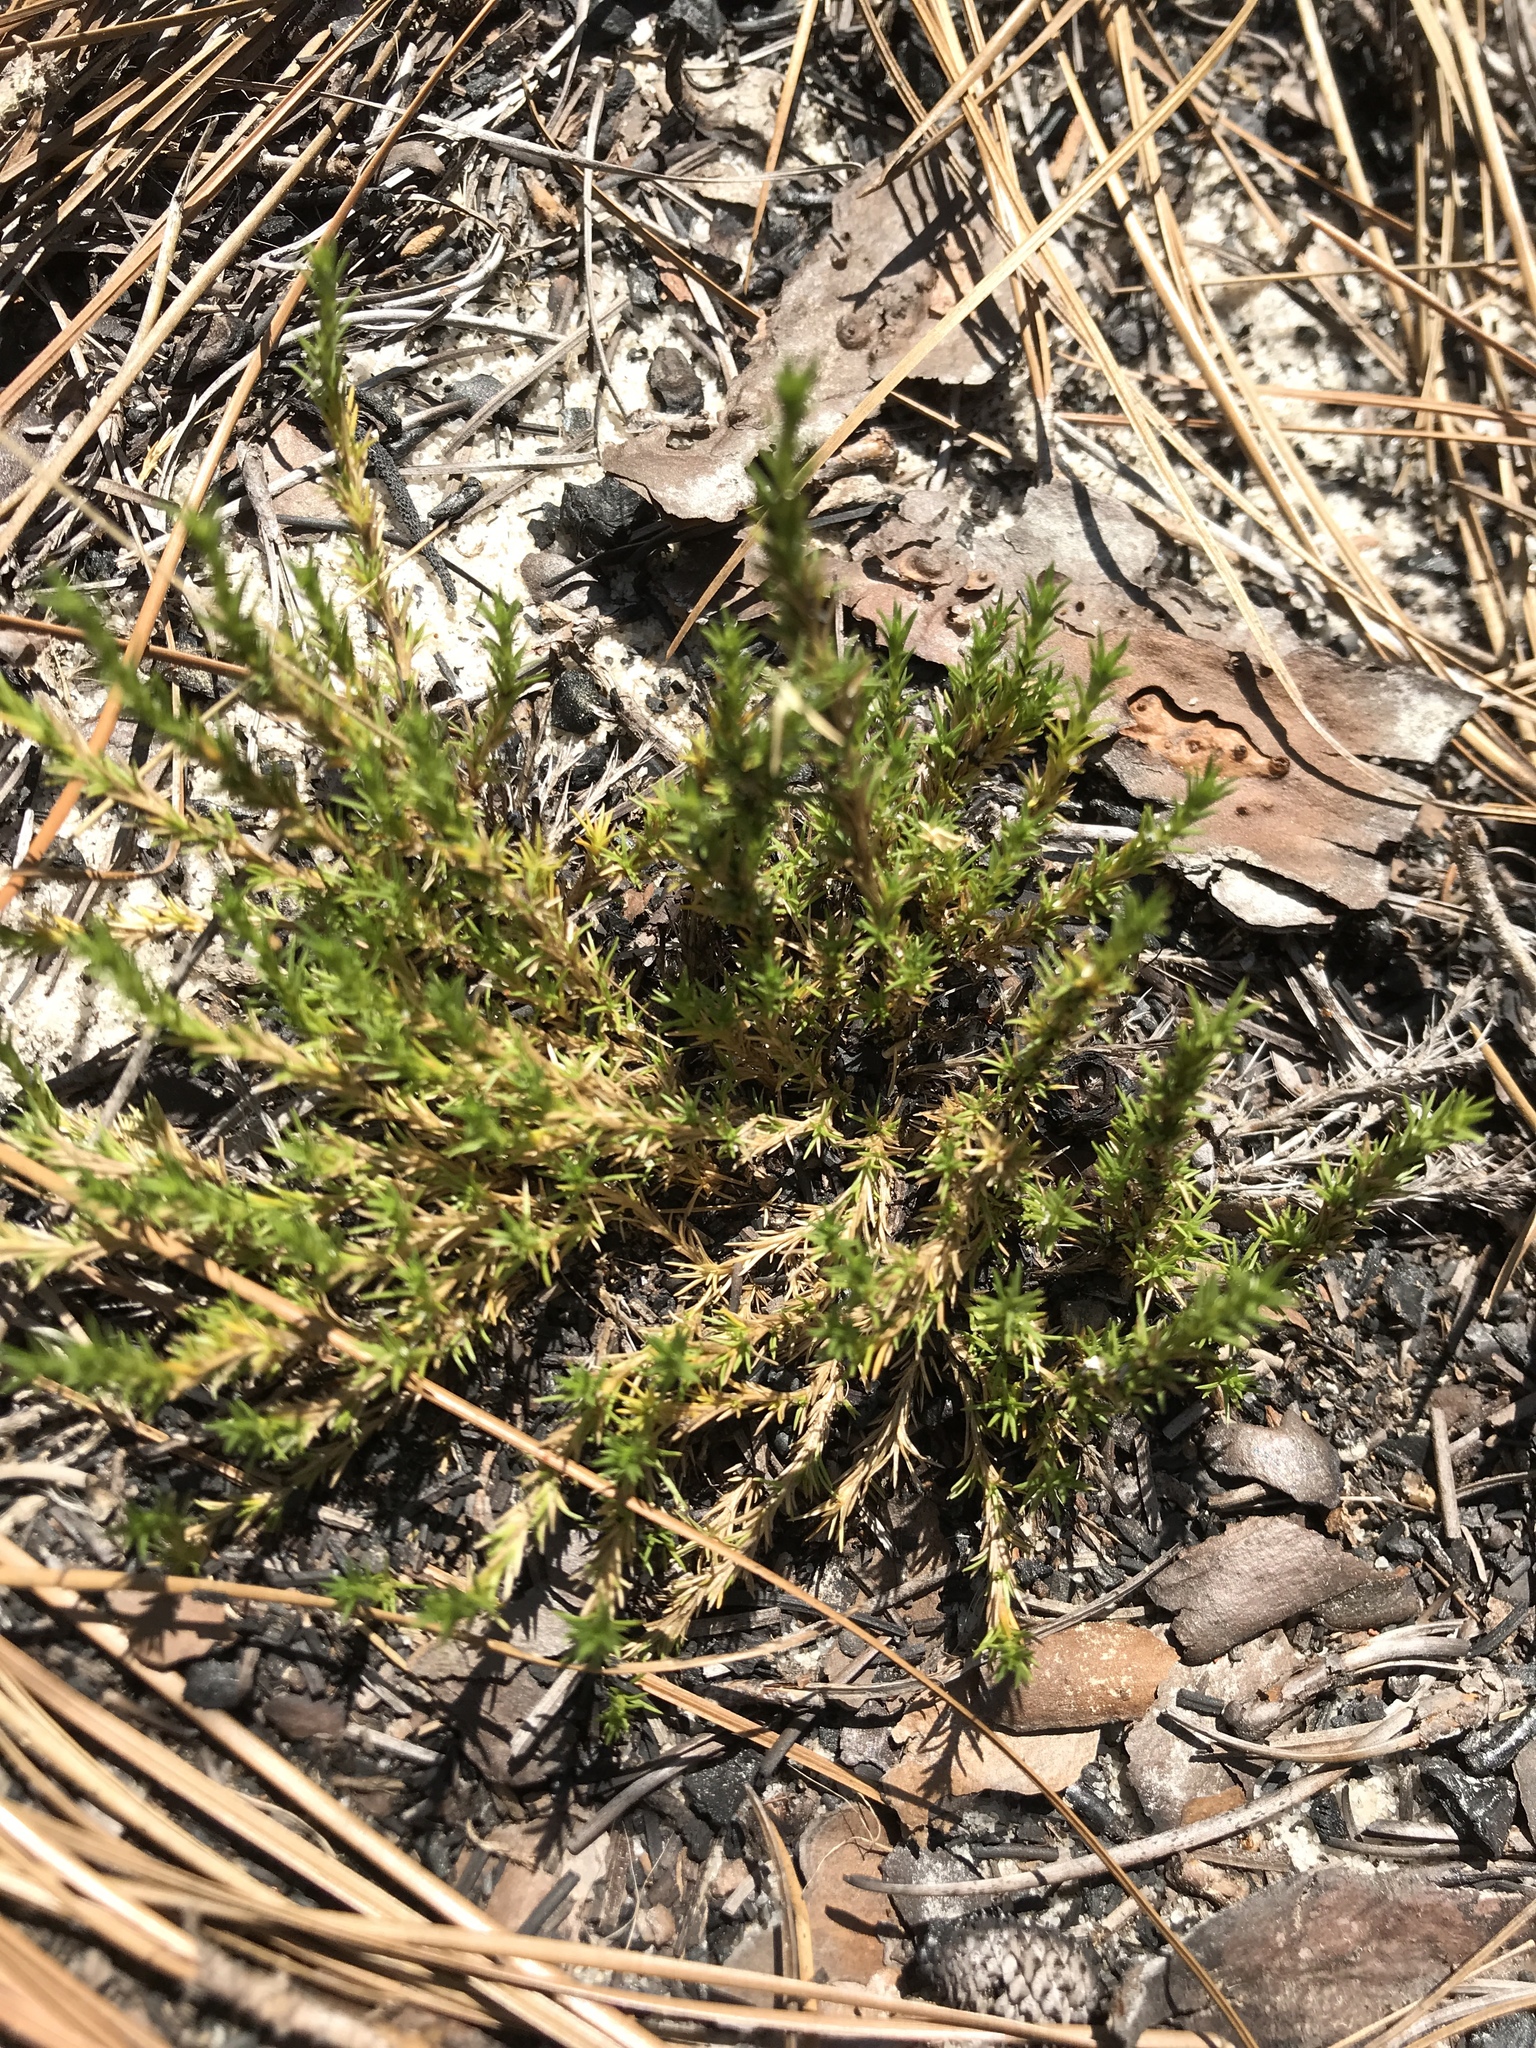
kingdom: Plantae
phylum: Tracheophyta
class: Magnoliopsida
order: Caryophyllales
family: Caryophyllaceae
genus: Geocarpon
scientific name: Geocarpon carolinianum
